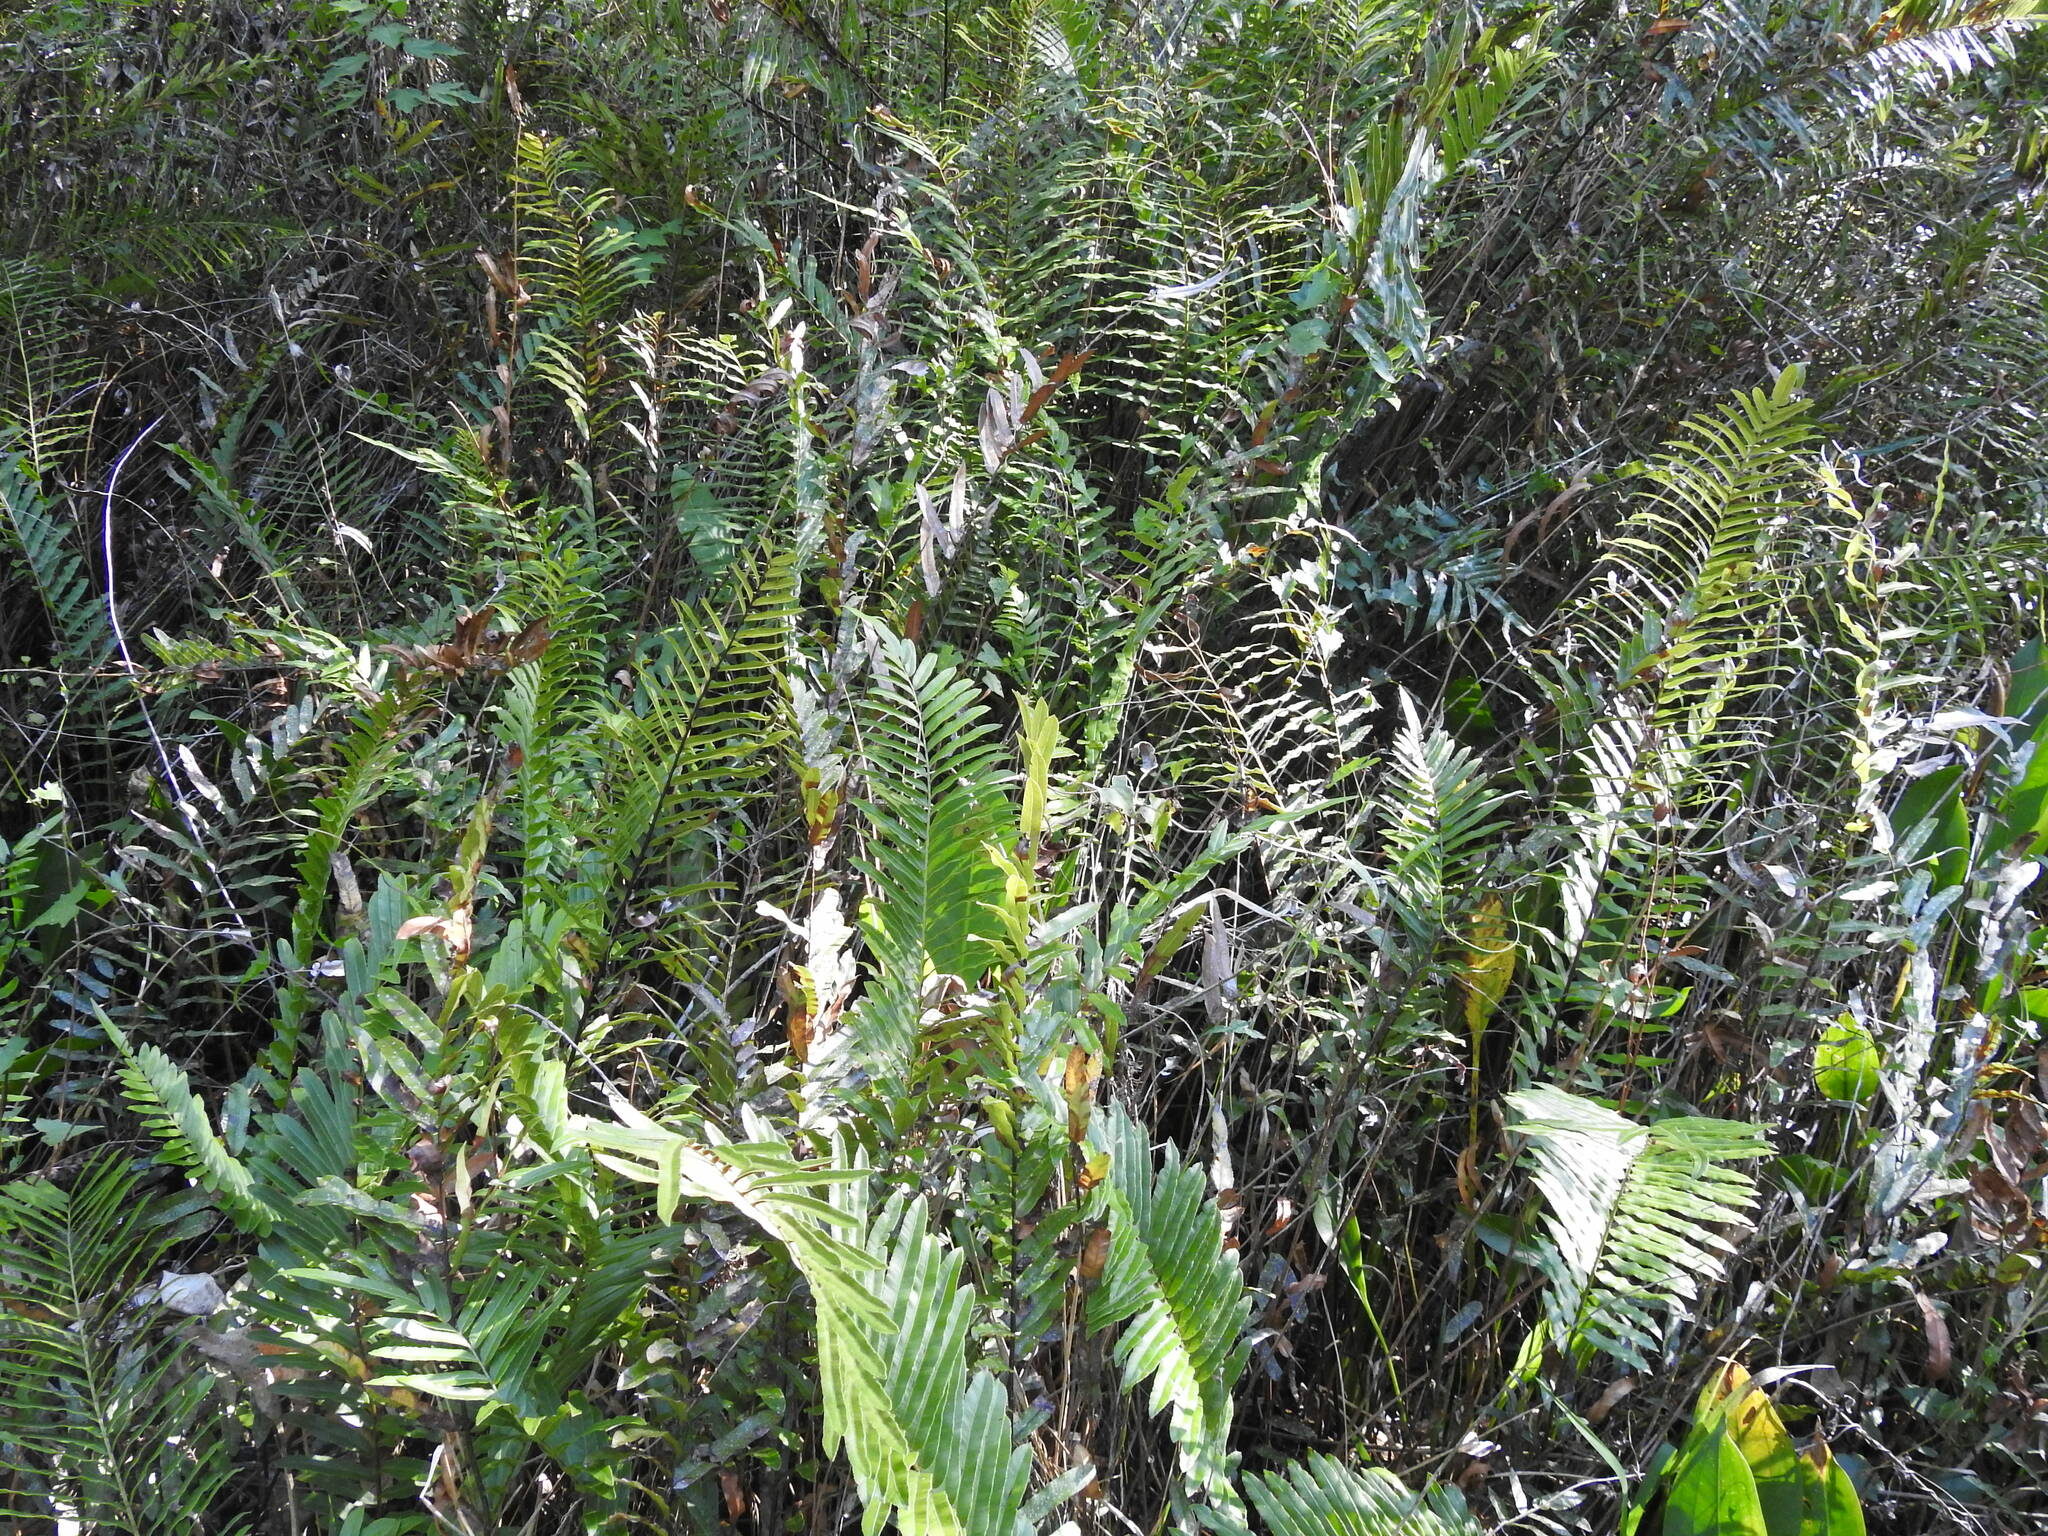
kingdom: Plantae
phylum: Tracheophyta
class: Polypodiopsida
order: Polypodiales
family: Blechnaceae
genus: Telmatoblechnum
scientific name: Telmatoblechnum serrulatum
